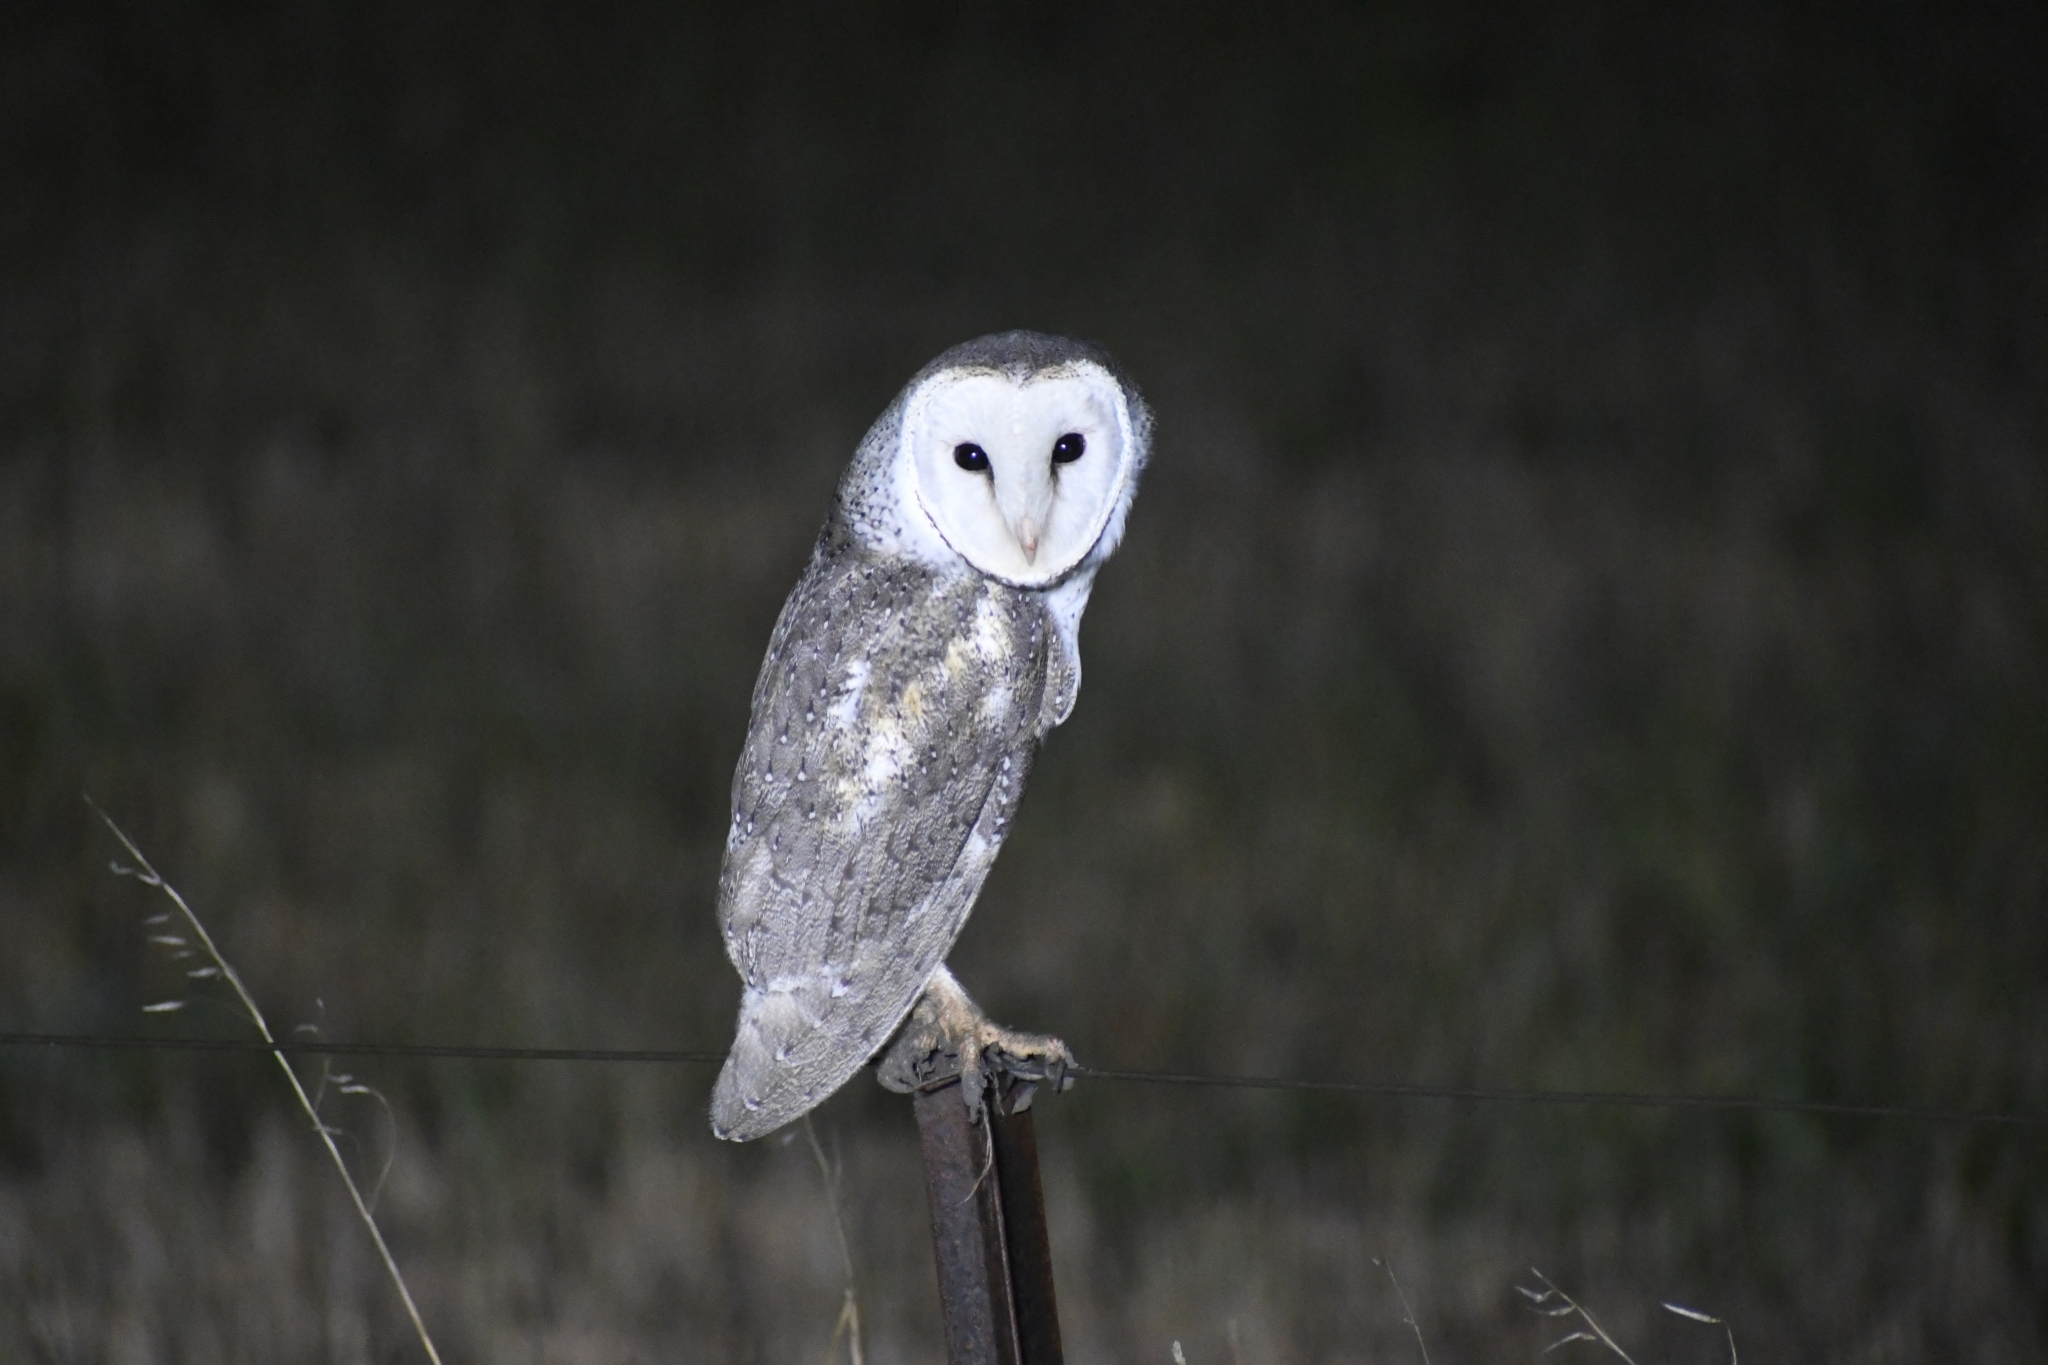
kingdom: Animalia
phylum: Chordata
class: Aves
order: Strigiformes
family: Tytonidae
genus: Tyto
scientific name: Tyto alba
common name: Barn owl
